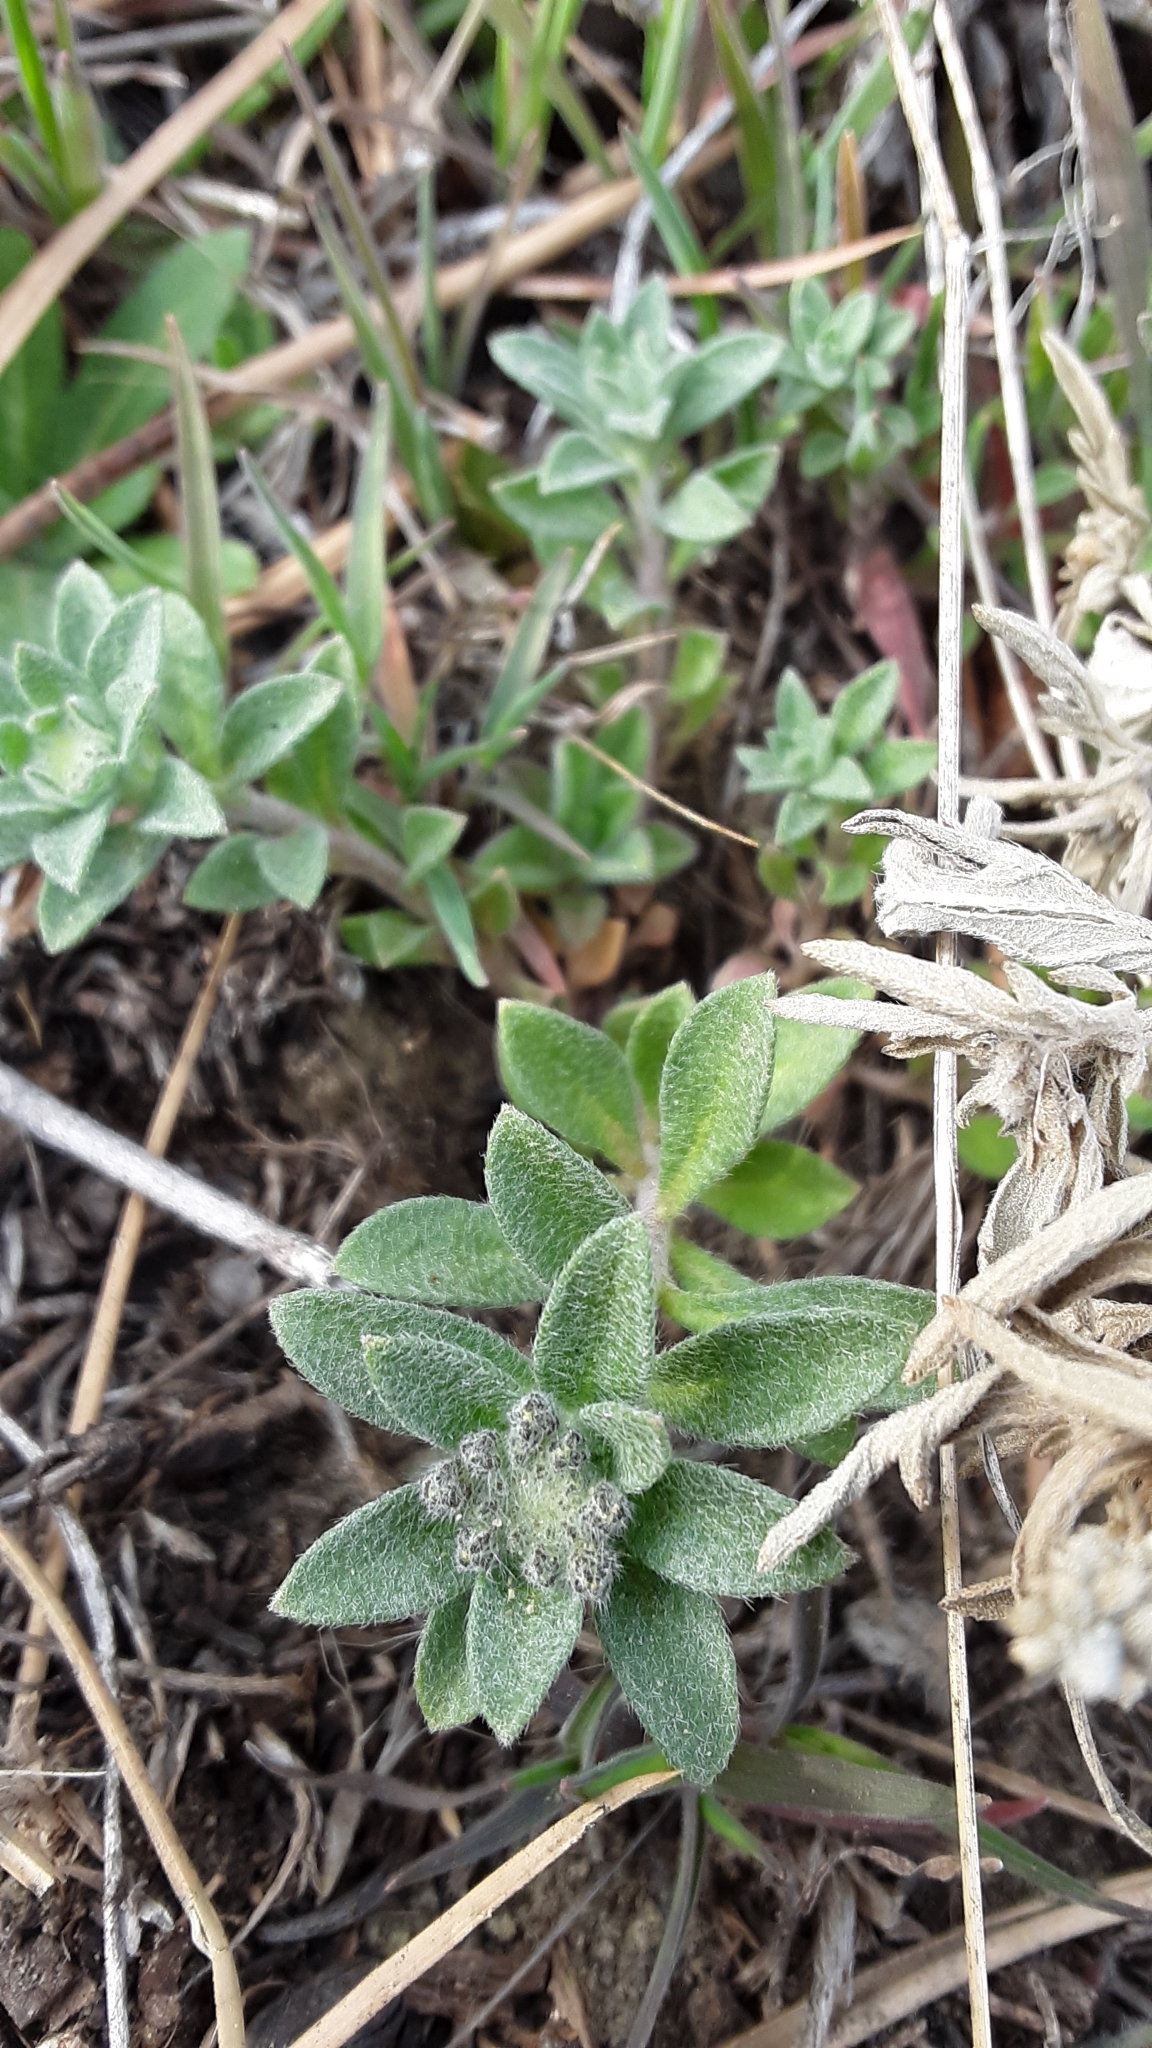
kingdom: Plantae
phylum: Tracheophyta
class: Magnoliopsida
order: Brassicales
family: Brassicaceae
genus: Alyssum
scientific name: Alyssum turkestanicum
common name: Desert alyssum
